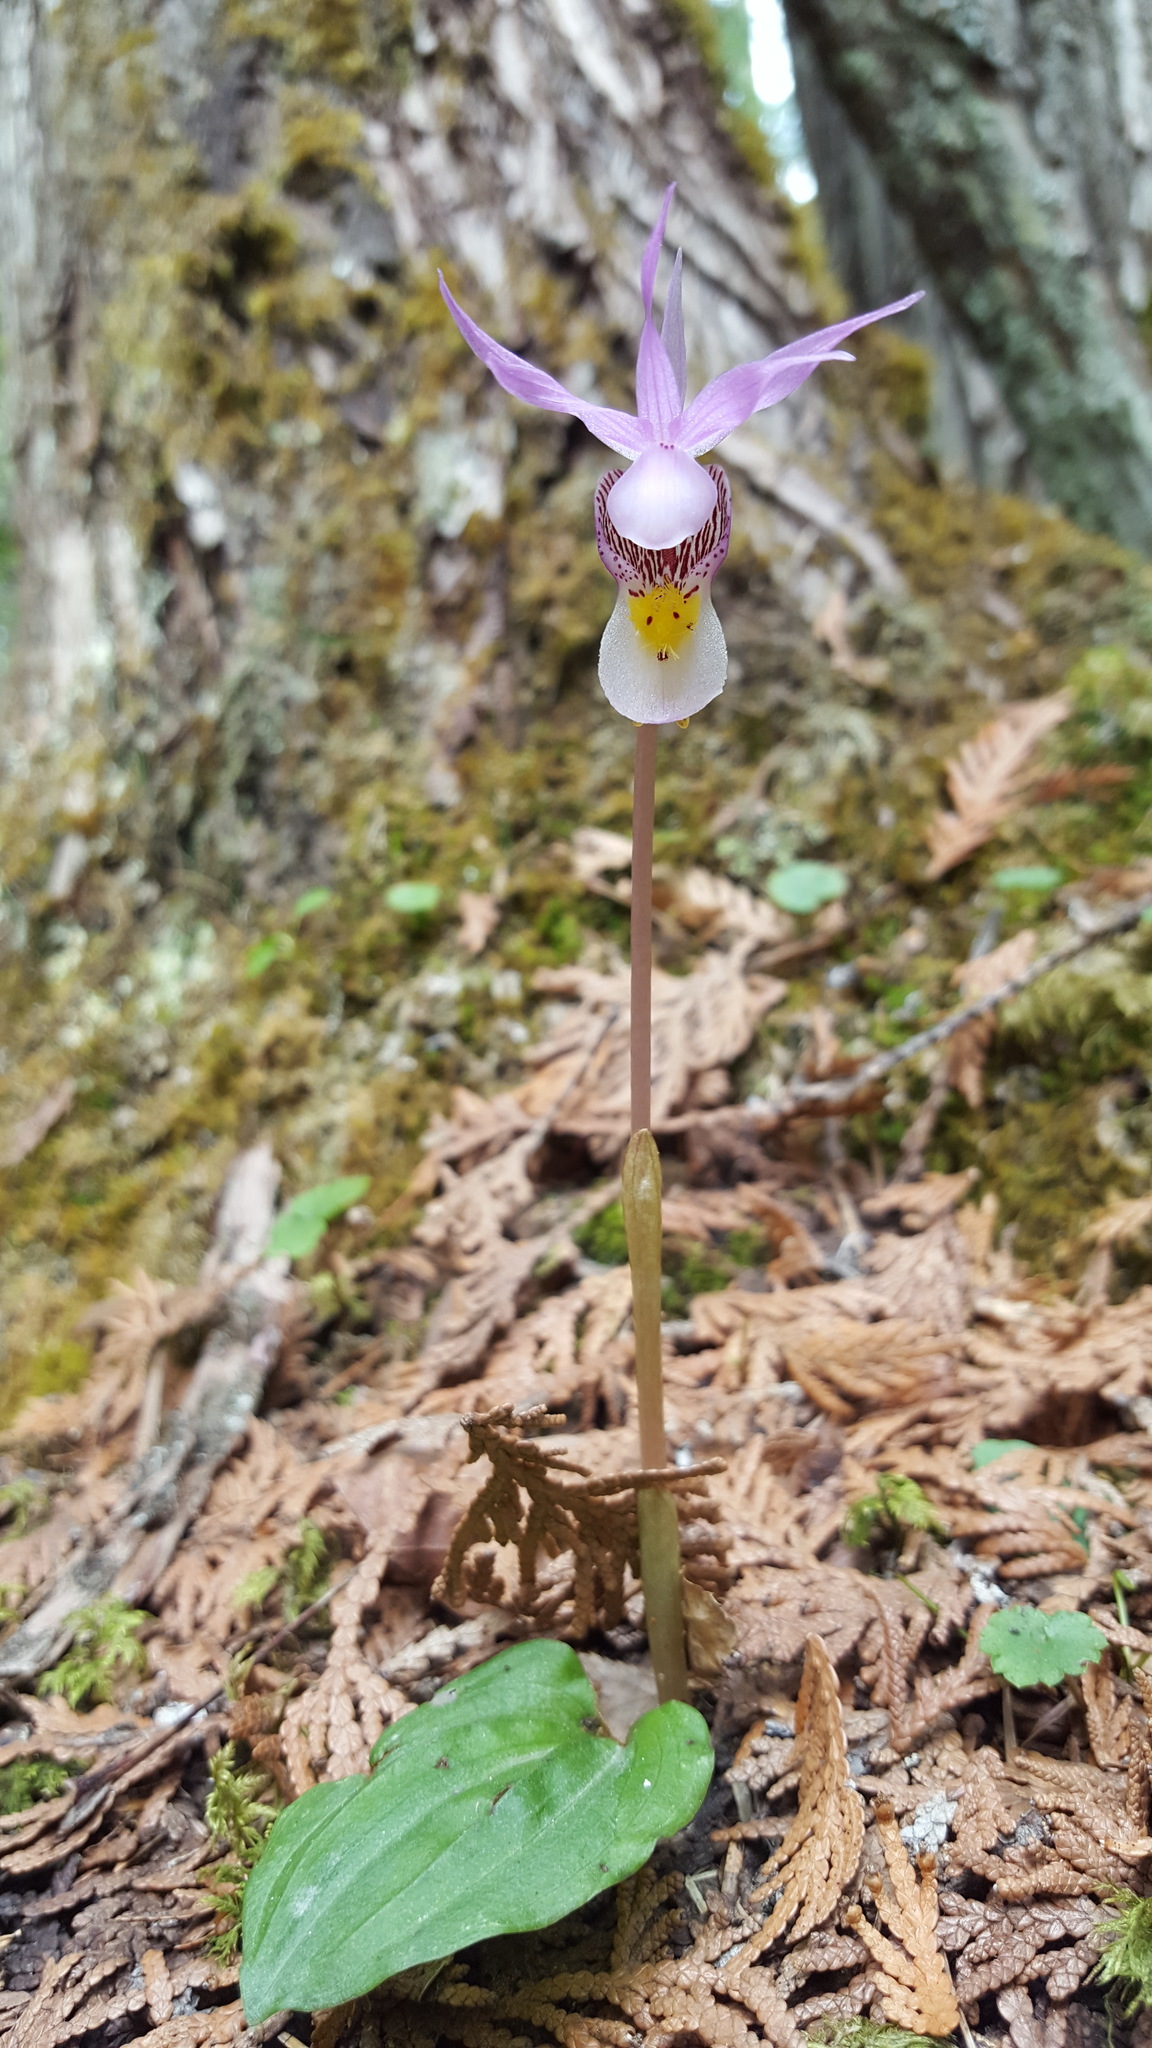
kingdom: Plantae
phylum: Tracheophyta
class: Liliopsida
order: Asparagales
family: Orchidaceae
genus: Calypso
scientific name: Calypso bulbosa
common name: Calypso
